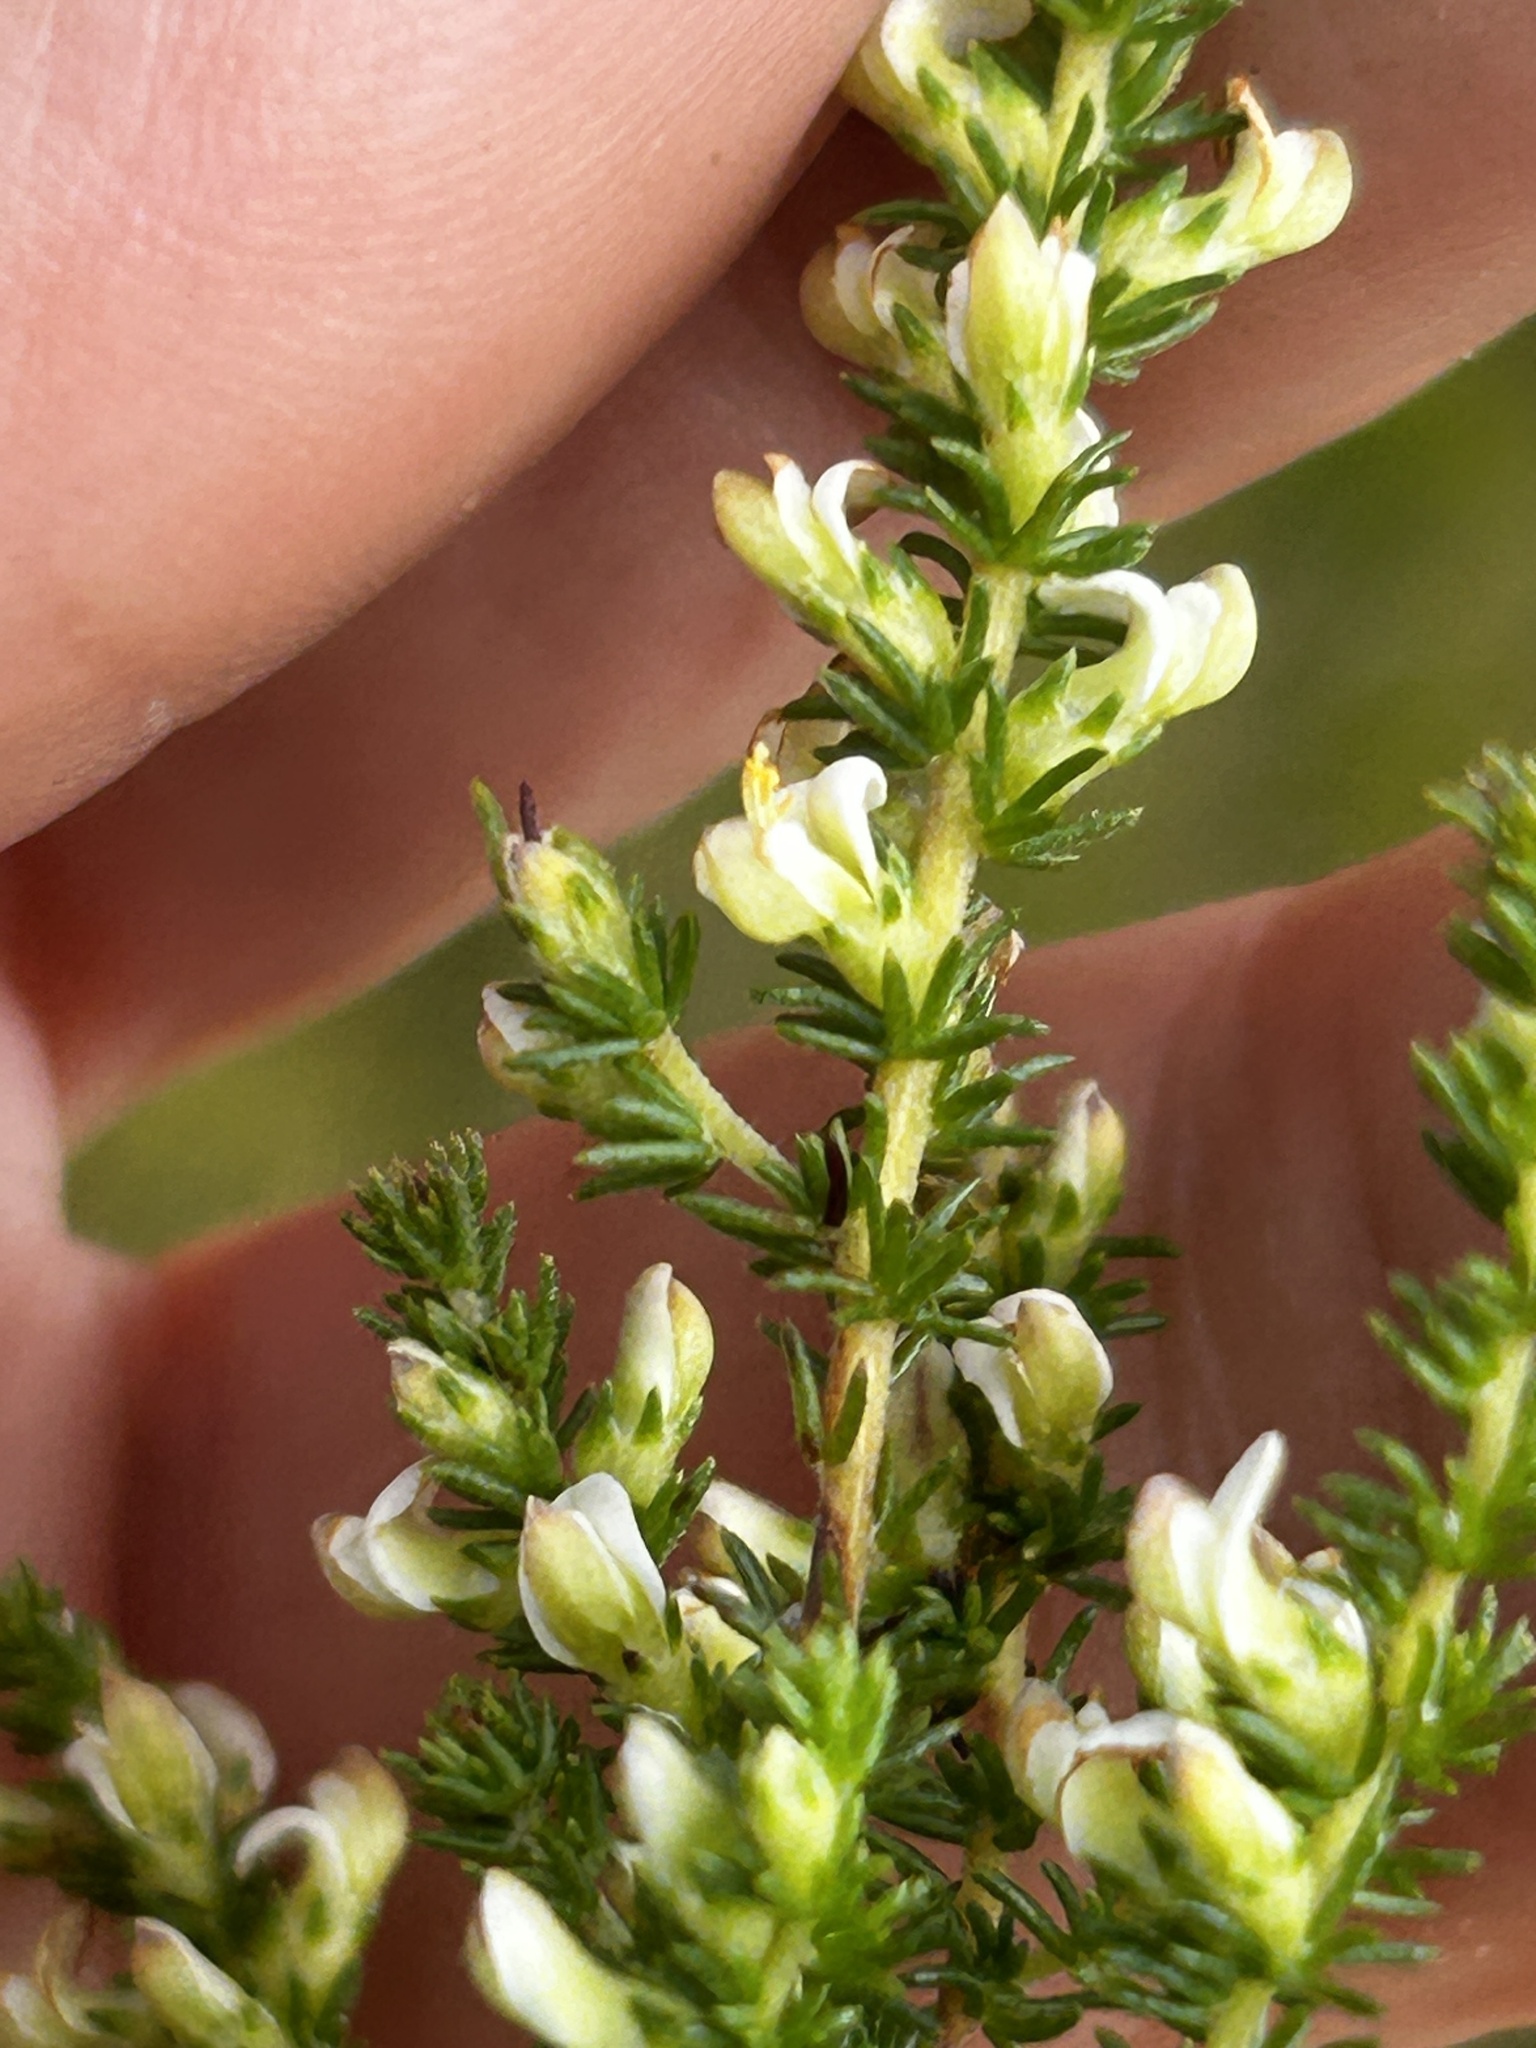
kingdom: Plantae
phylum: Tracheophyta
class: Magnoliopsida
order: Fabales
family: Fabaceae
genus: Aspalathus
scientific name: Aspalathus hispida
